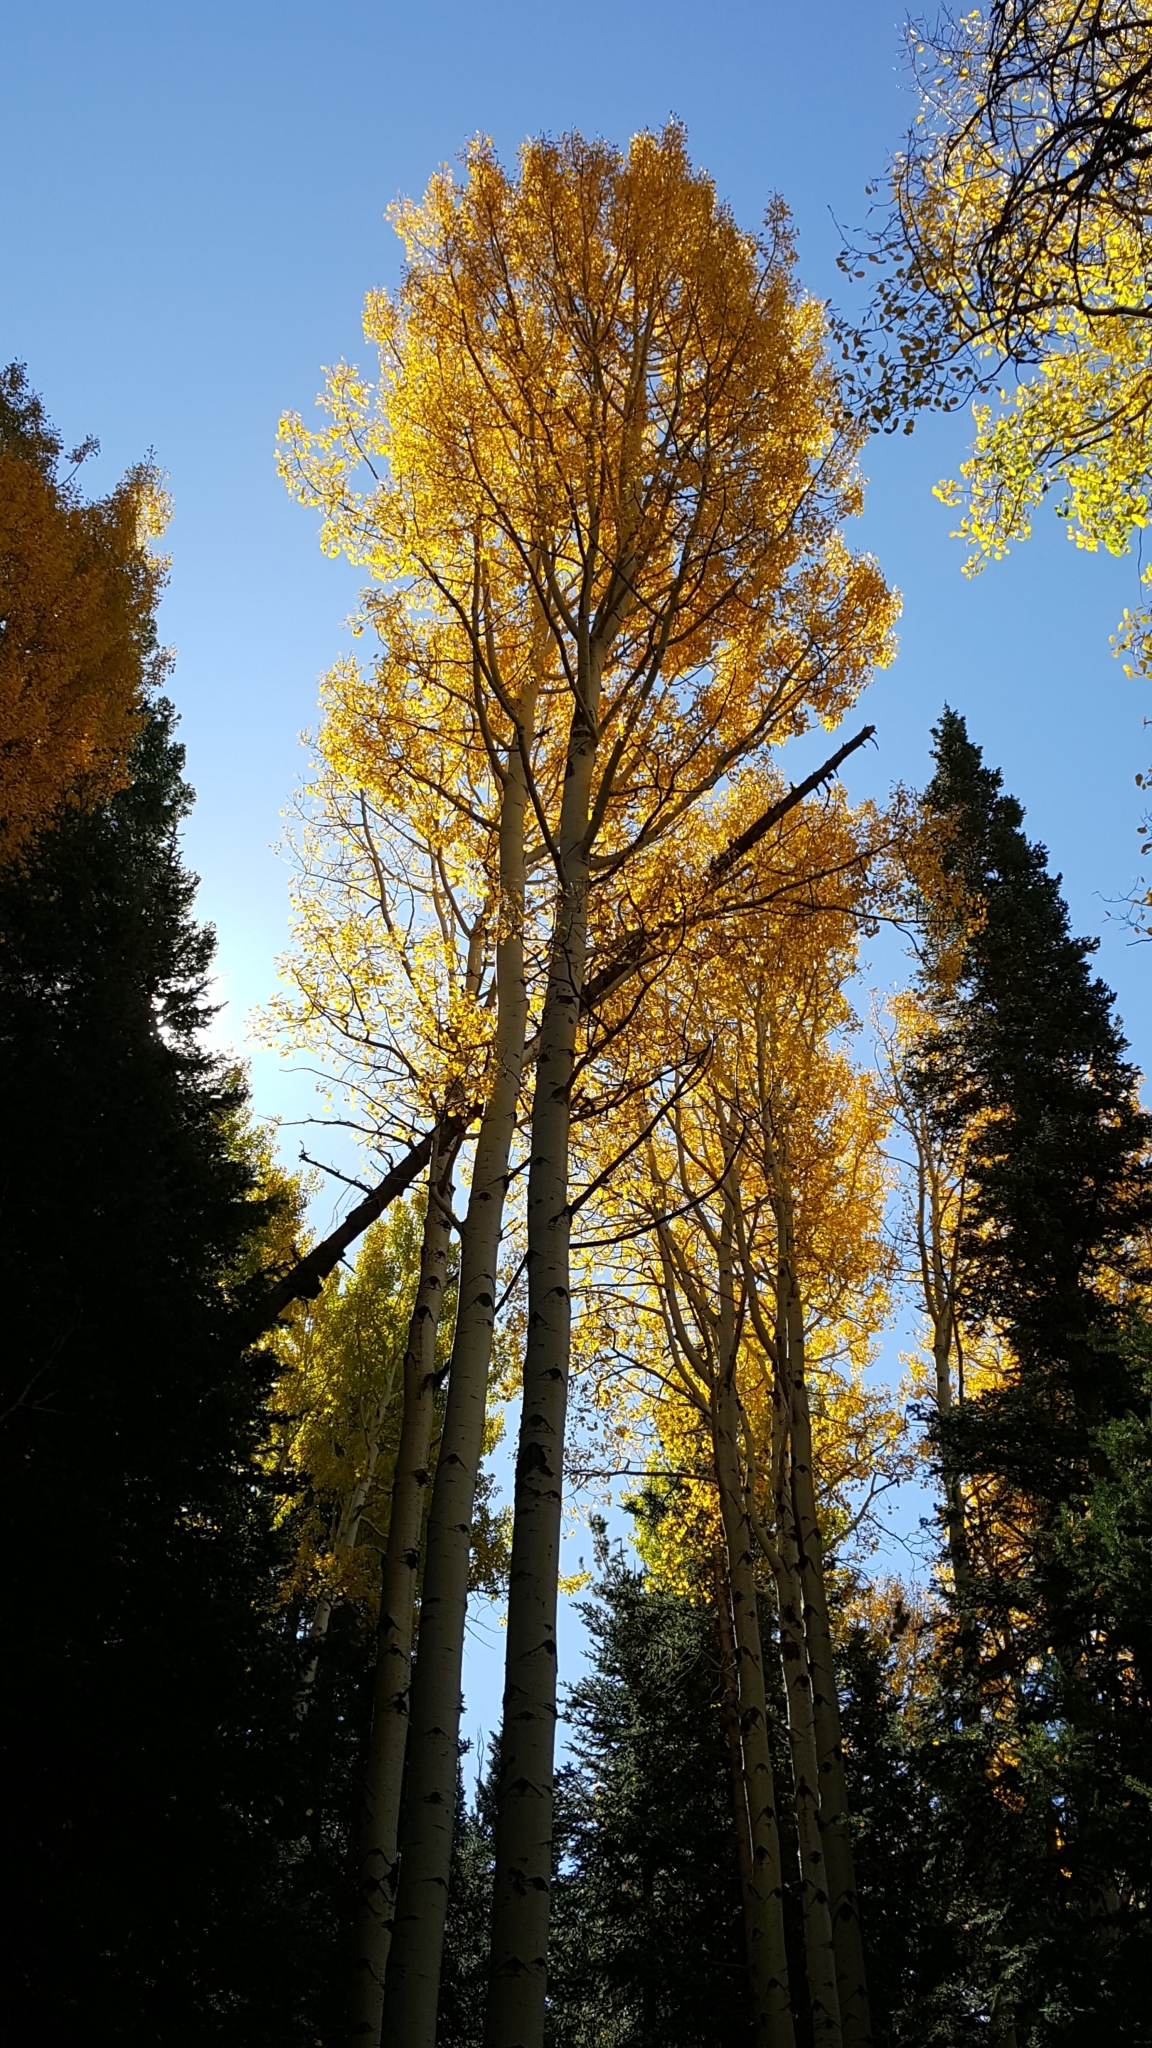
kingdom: Plantae
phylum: Tracheophyta
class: Magnoliopsida
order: Malpighiales
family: Salicaceae
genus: Populus
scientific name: Populus tremuloides
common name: Quaking aspen
